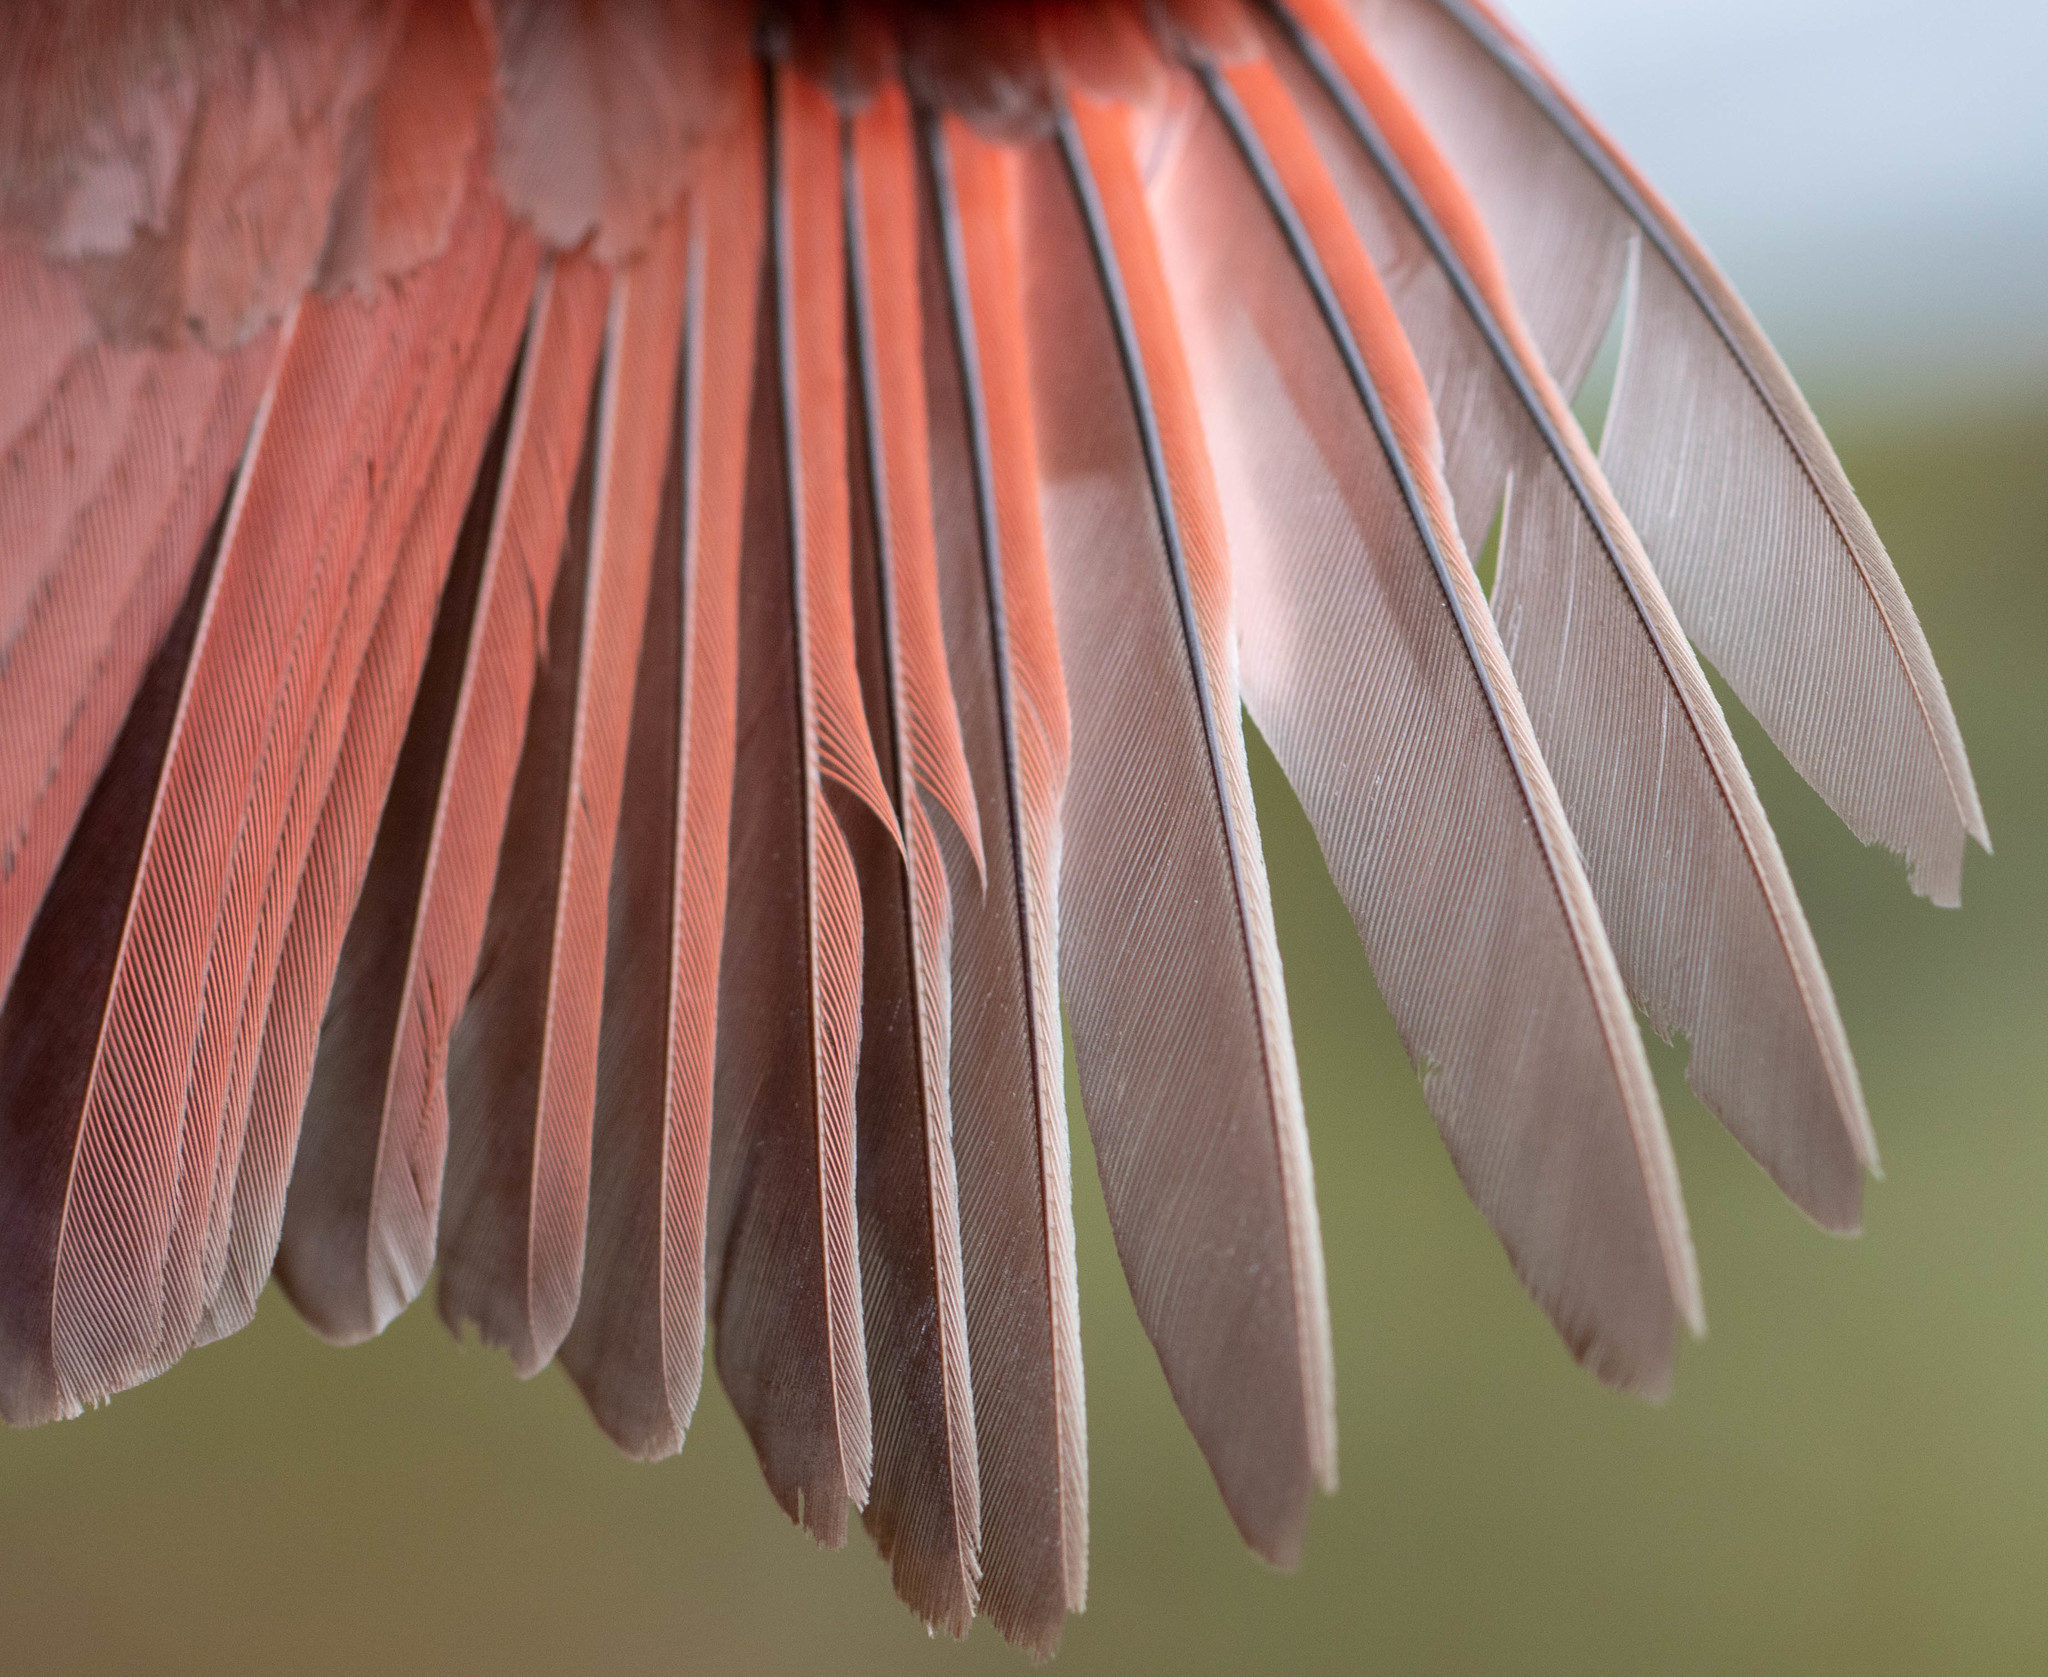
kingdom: Animalia
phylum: Chordata
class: Aves
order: Passeriformes
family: Cardinalidae
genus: Cardinalis
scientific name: Cardinalis cardinalis
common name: Northern cardinal
